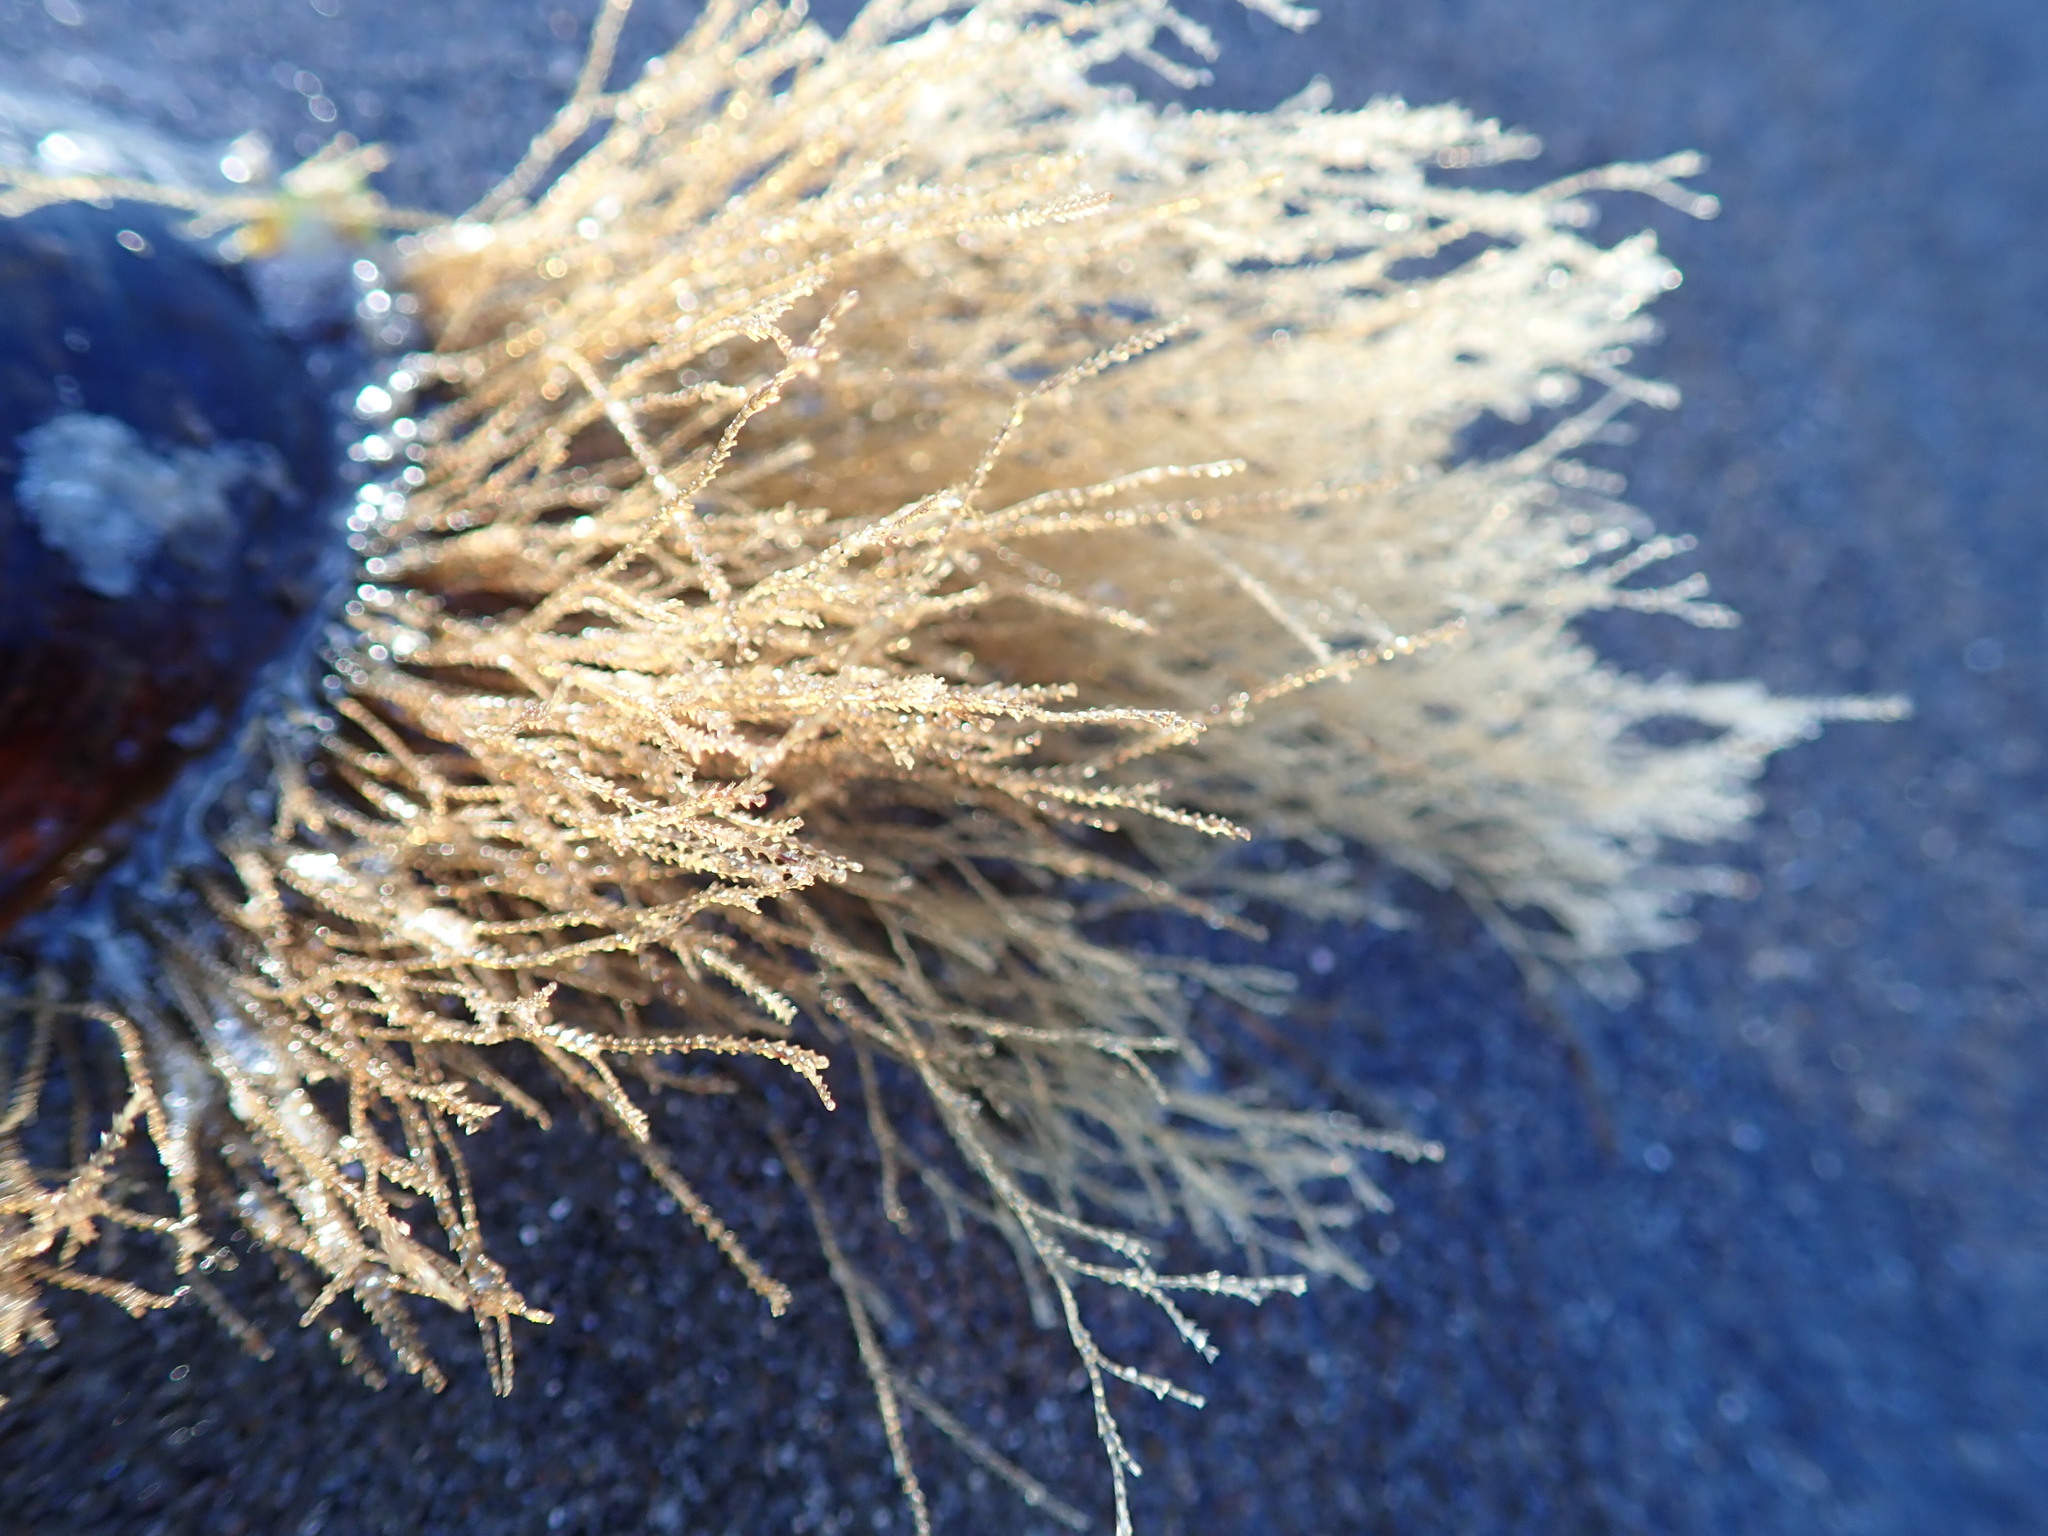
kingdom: Animalia
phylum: Cnidaria
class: Hydrozoa
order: Leptothecata
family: Sertulariidae
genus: Amphisbetia
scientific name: Amphisbetia bispinosa
